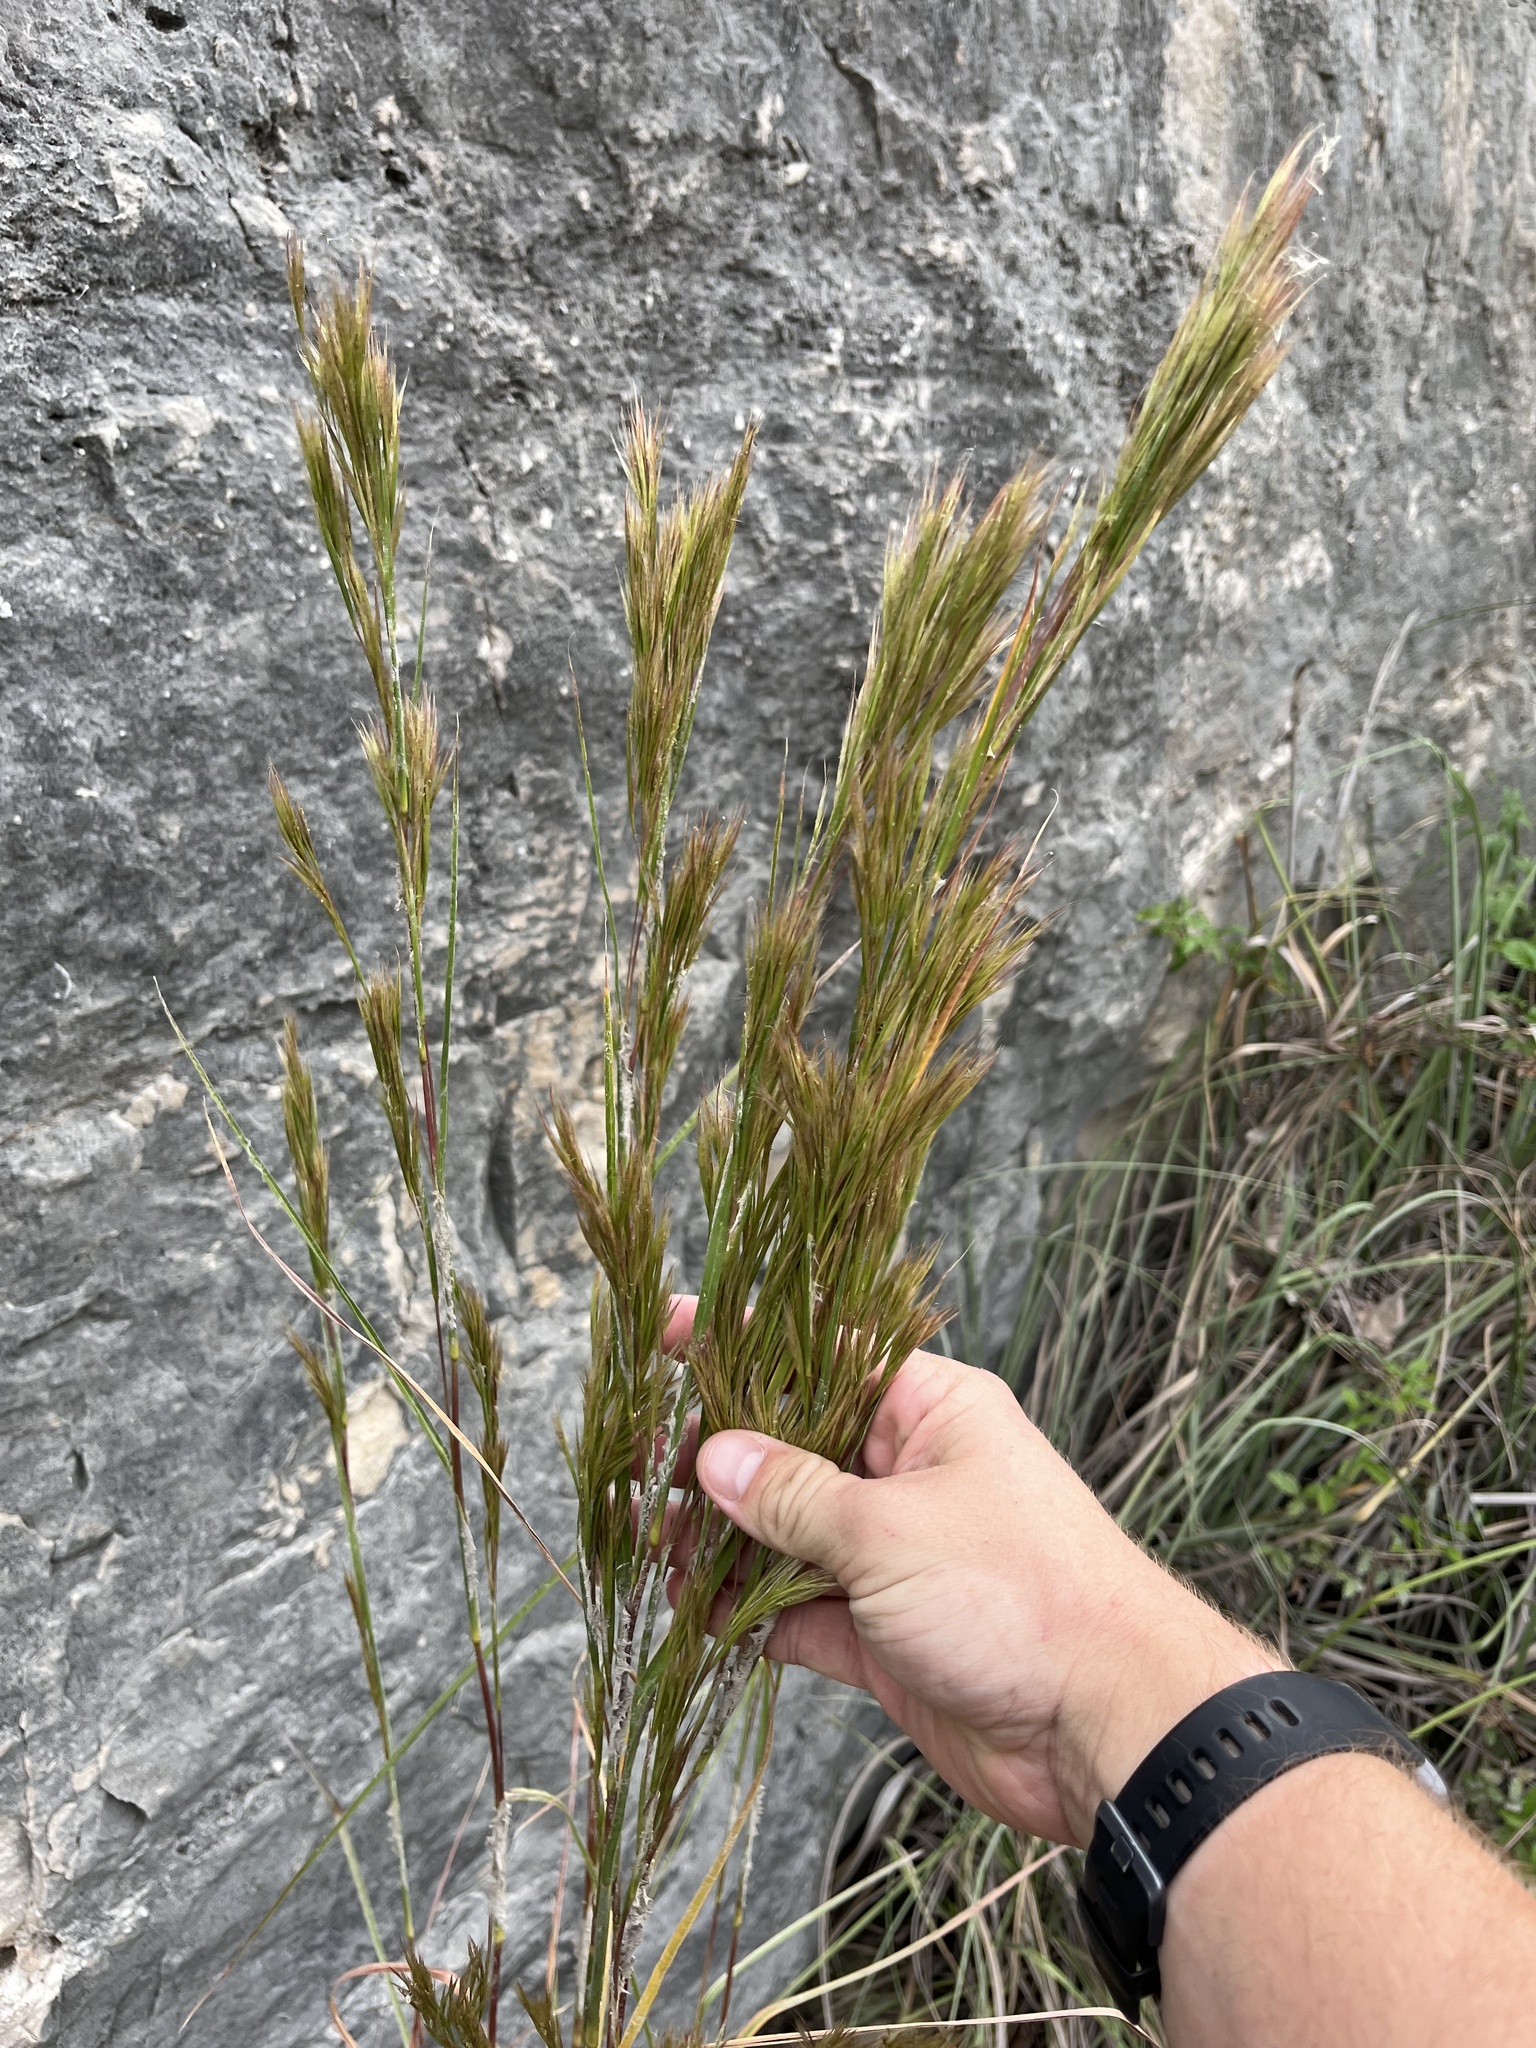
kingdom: Plantae
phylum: Tracheophyta
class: Liliopsida
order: Poales
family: Poaceae
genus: Andropogon
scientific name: Andropogon tenuispatheus
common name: Bushy bluestem
